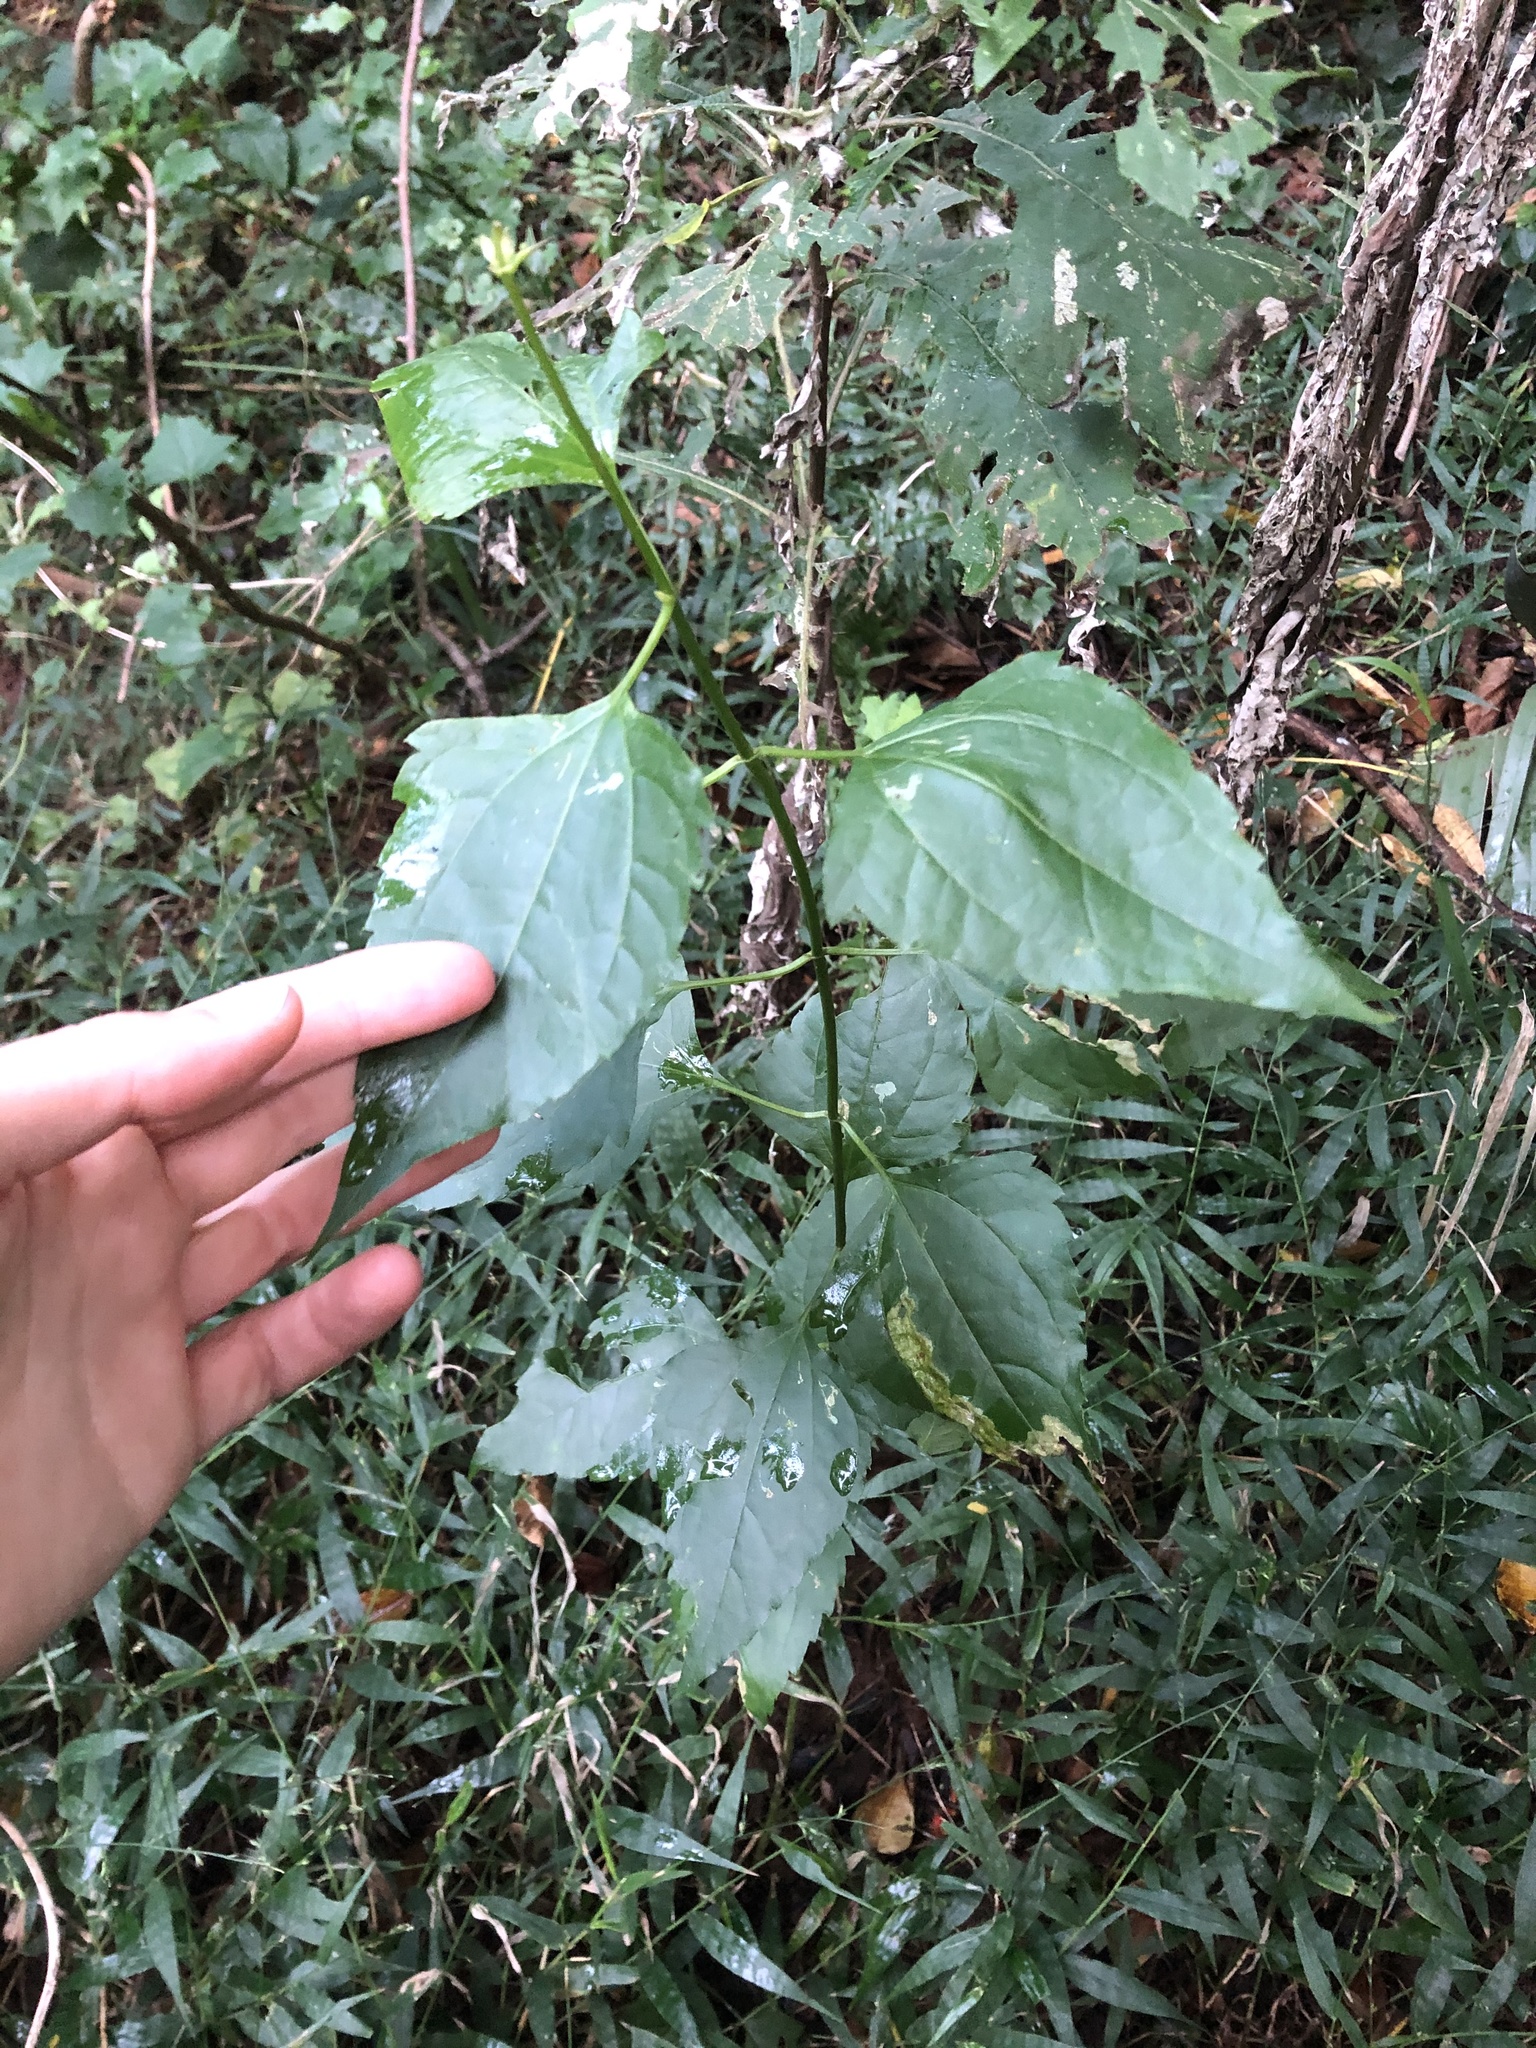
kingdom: Plantae
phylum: Tracheophyta
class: Magnoliopsida
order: Asterales
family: Asteraceae
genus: Chromolaena
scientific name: Chromolaena odorata
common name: Siamweed
